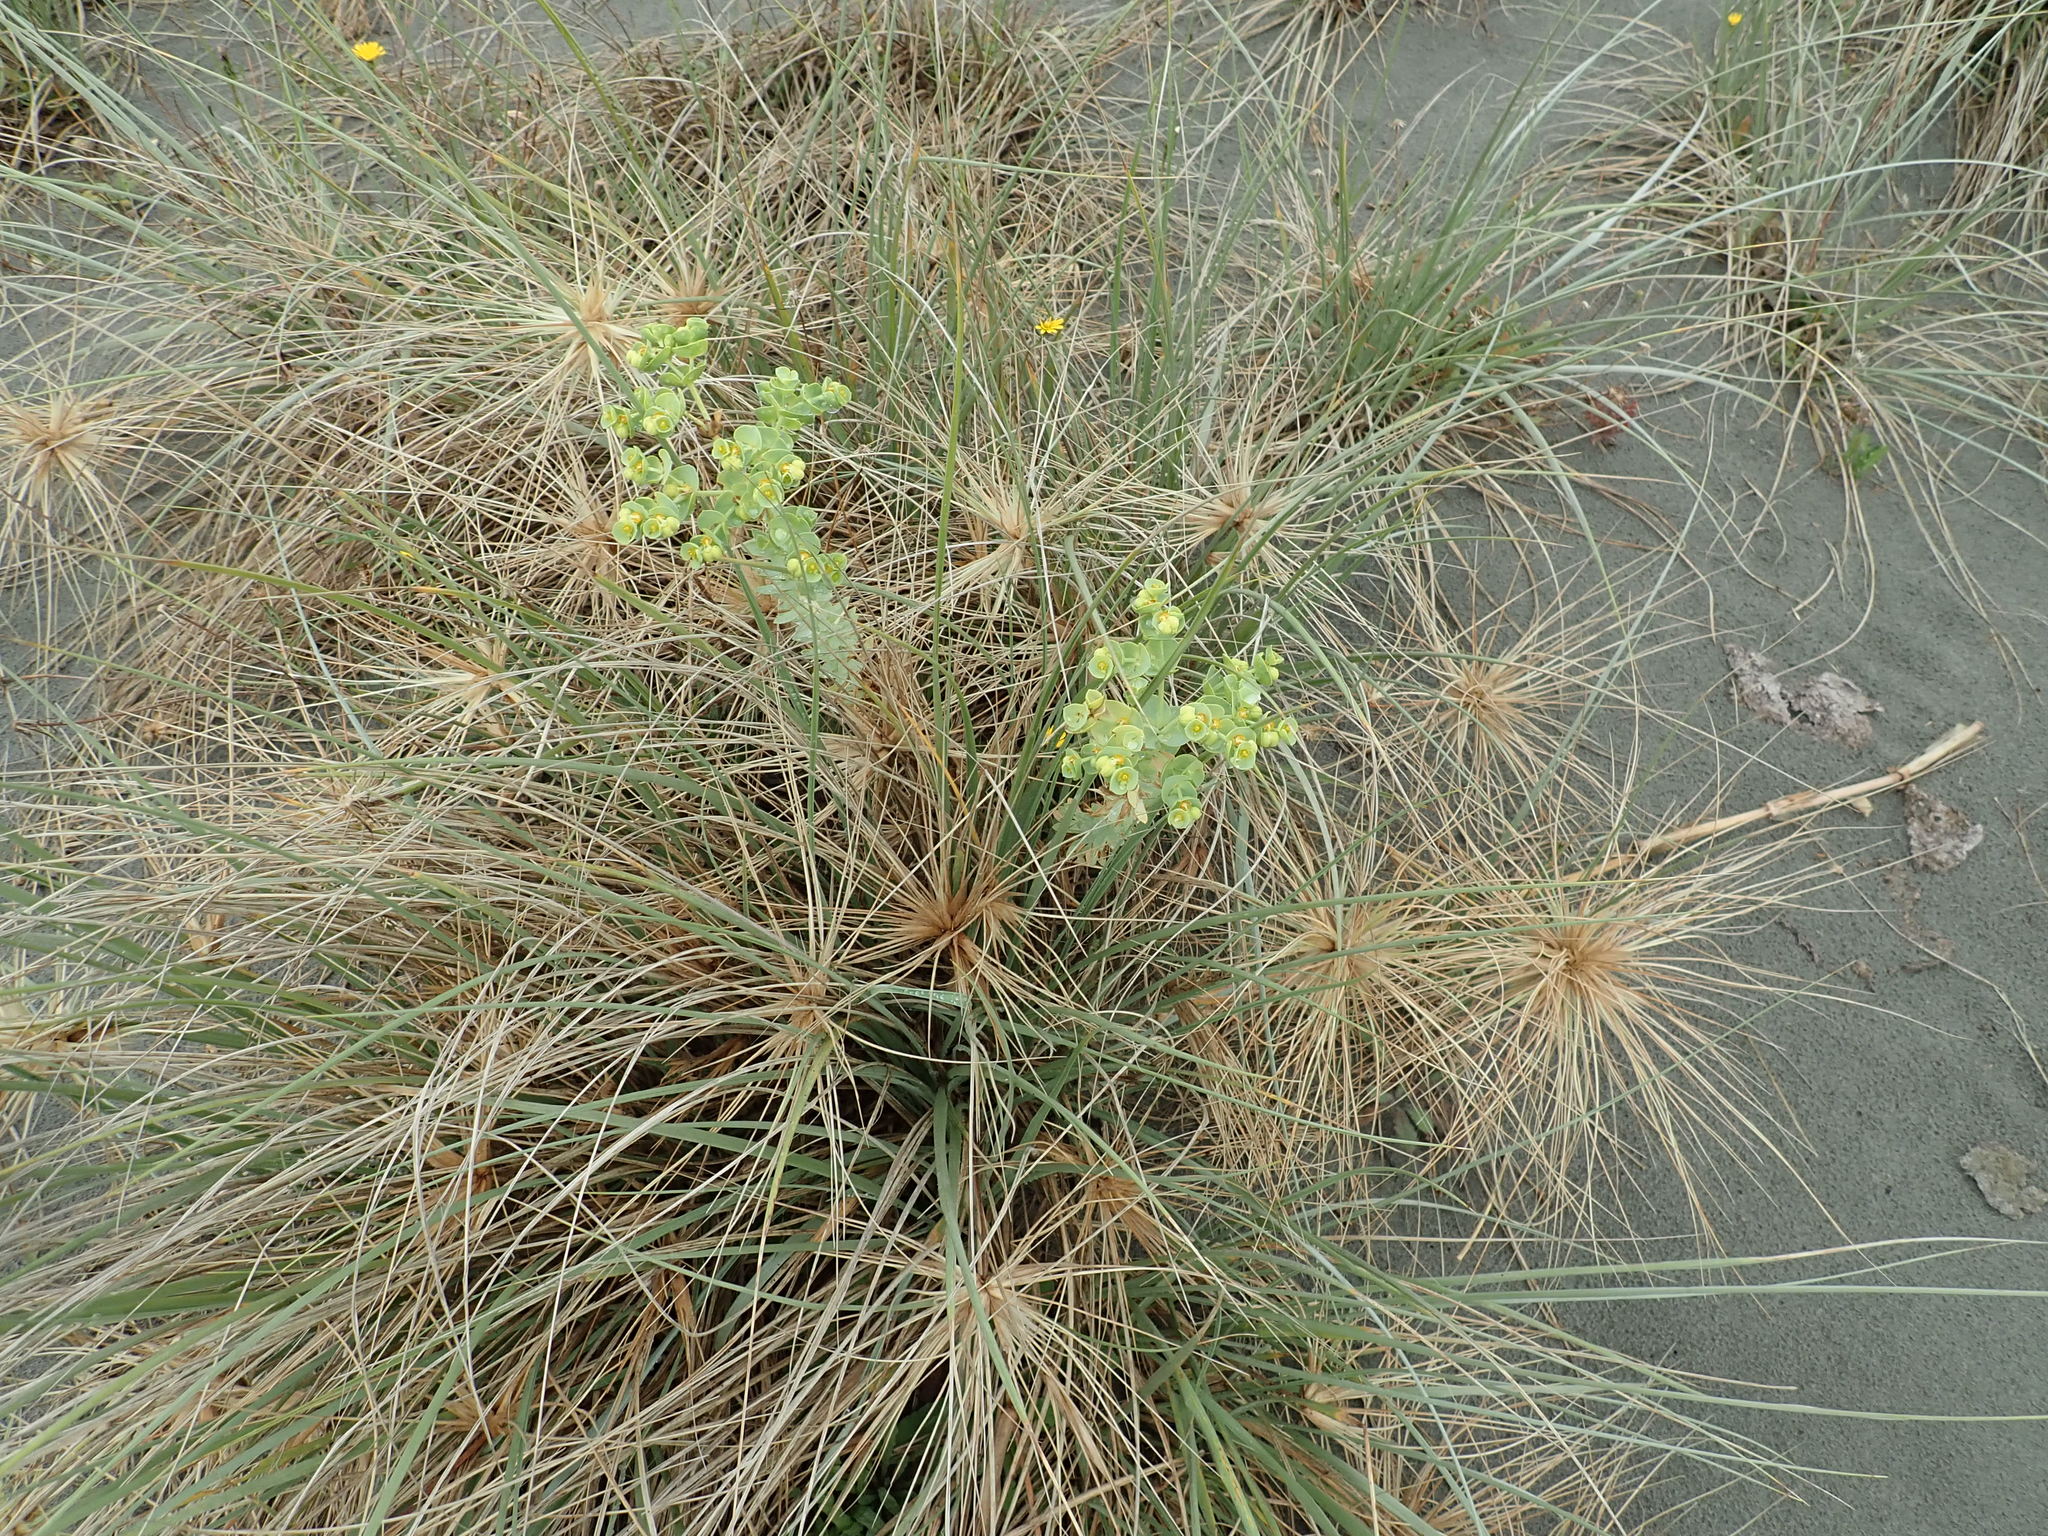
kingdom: Plantae
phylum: Tracheophyta
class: Magnoliopsida
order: Malpighiales
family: Euphorbiaceae
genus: Euphorbia
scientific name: Euphorbia paralias
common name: Sea spurge
